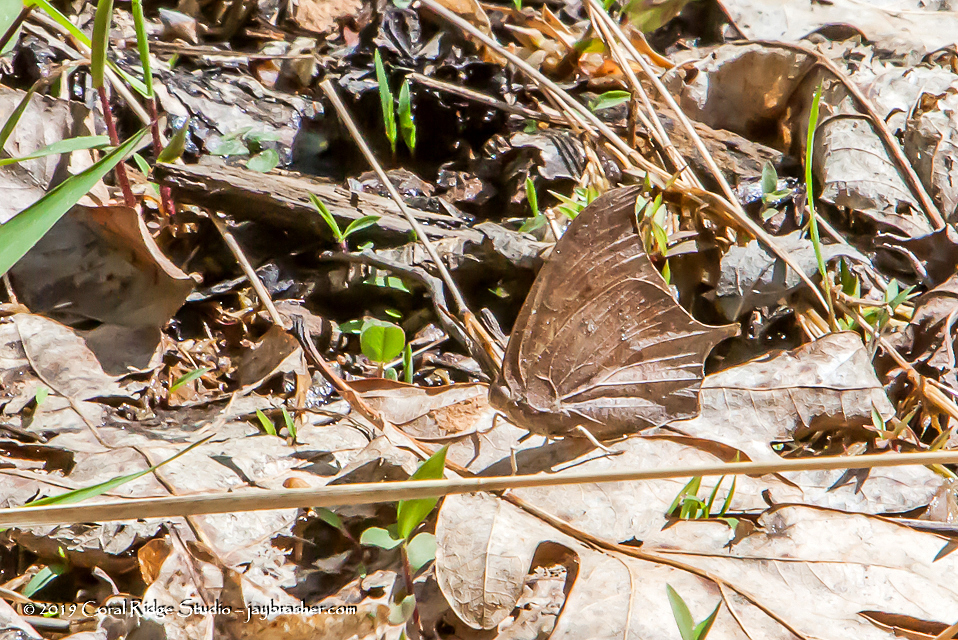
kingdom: Animalia
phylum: Arthropoda
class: Insecta
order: Lepidoptera
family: Nymphalidae
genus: Anaea
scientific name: Anaea andria
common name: Goatweed leafwing
